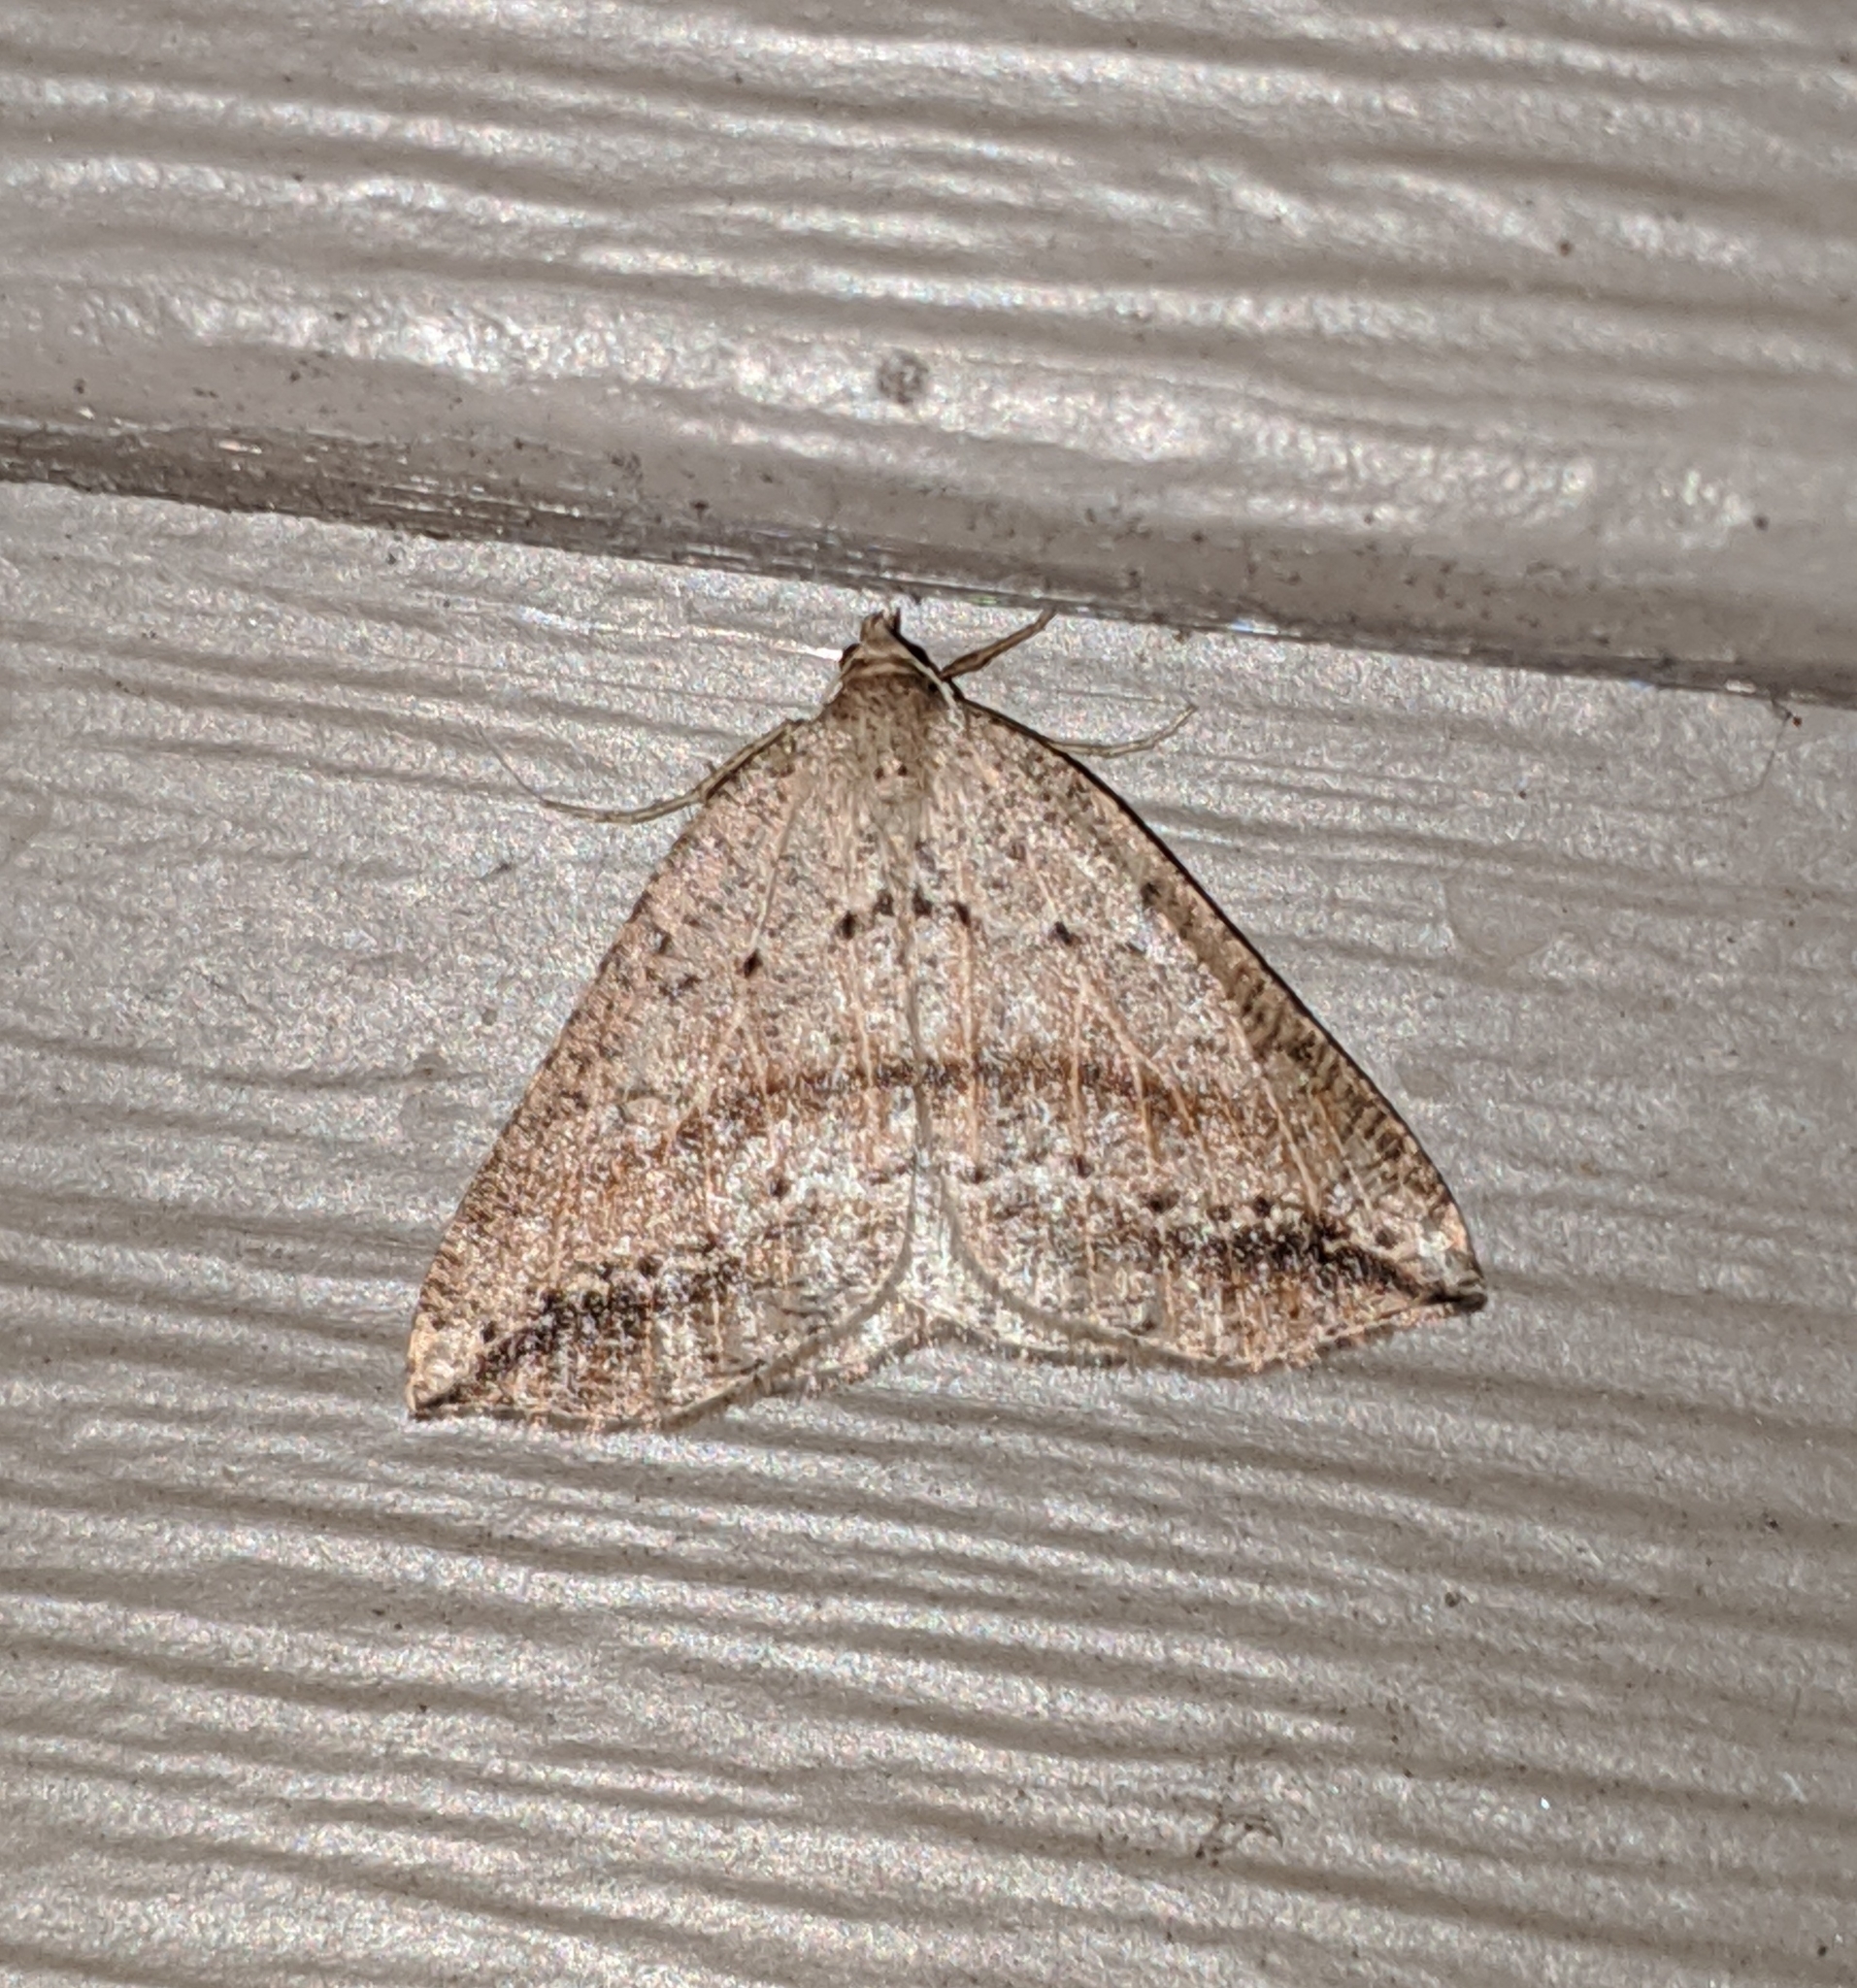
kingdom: Animalia
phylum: Arthropoda
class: Insecta
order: Lepidoptera
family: Geometridae
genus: Thallophaga
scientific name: Thallophaga taylorata
